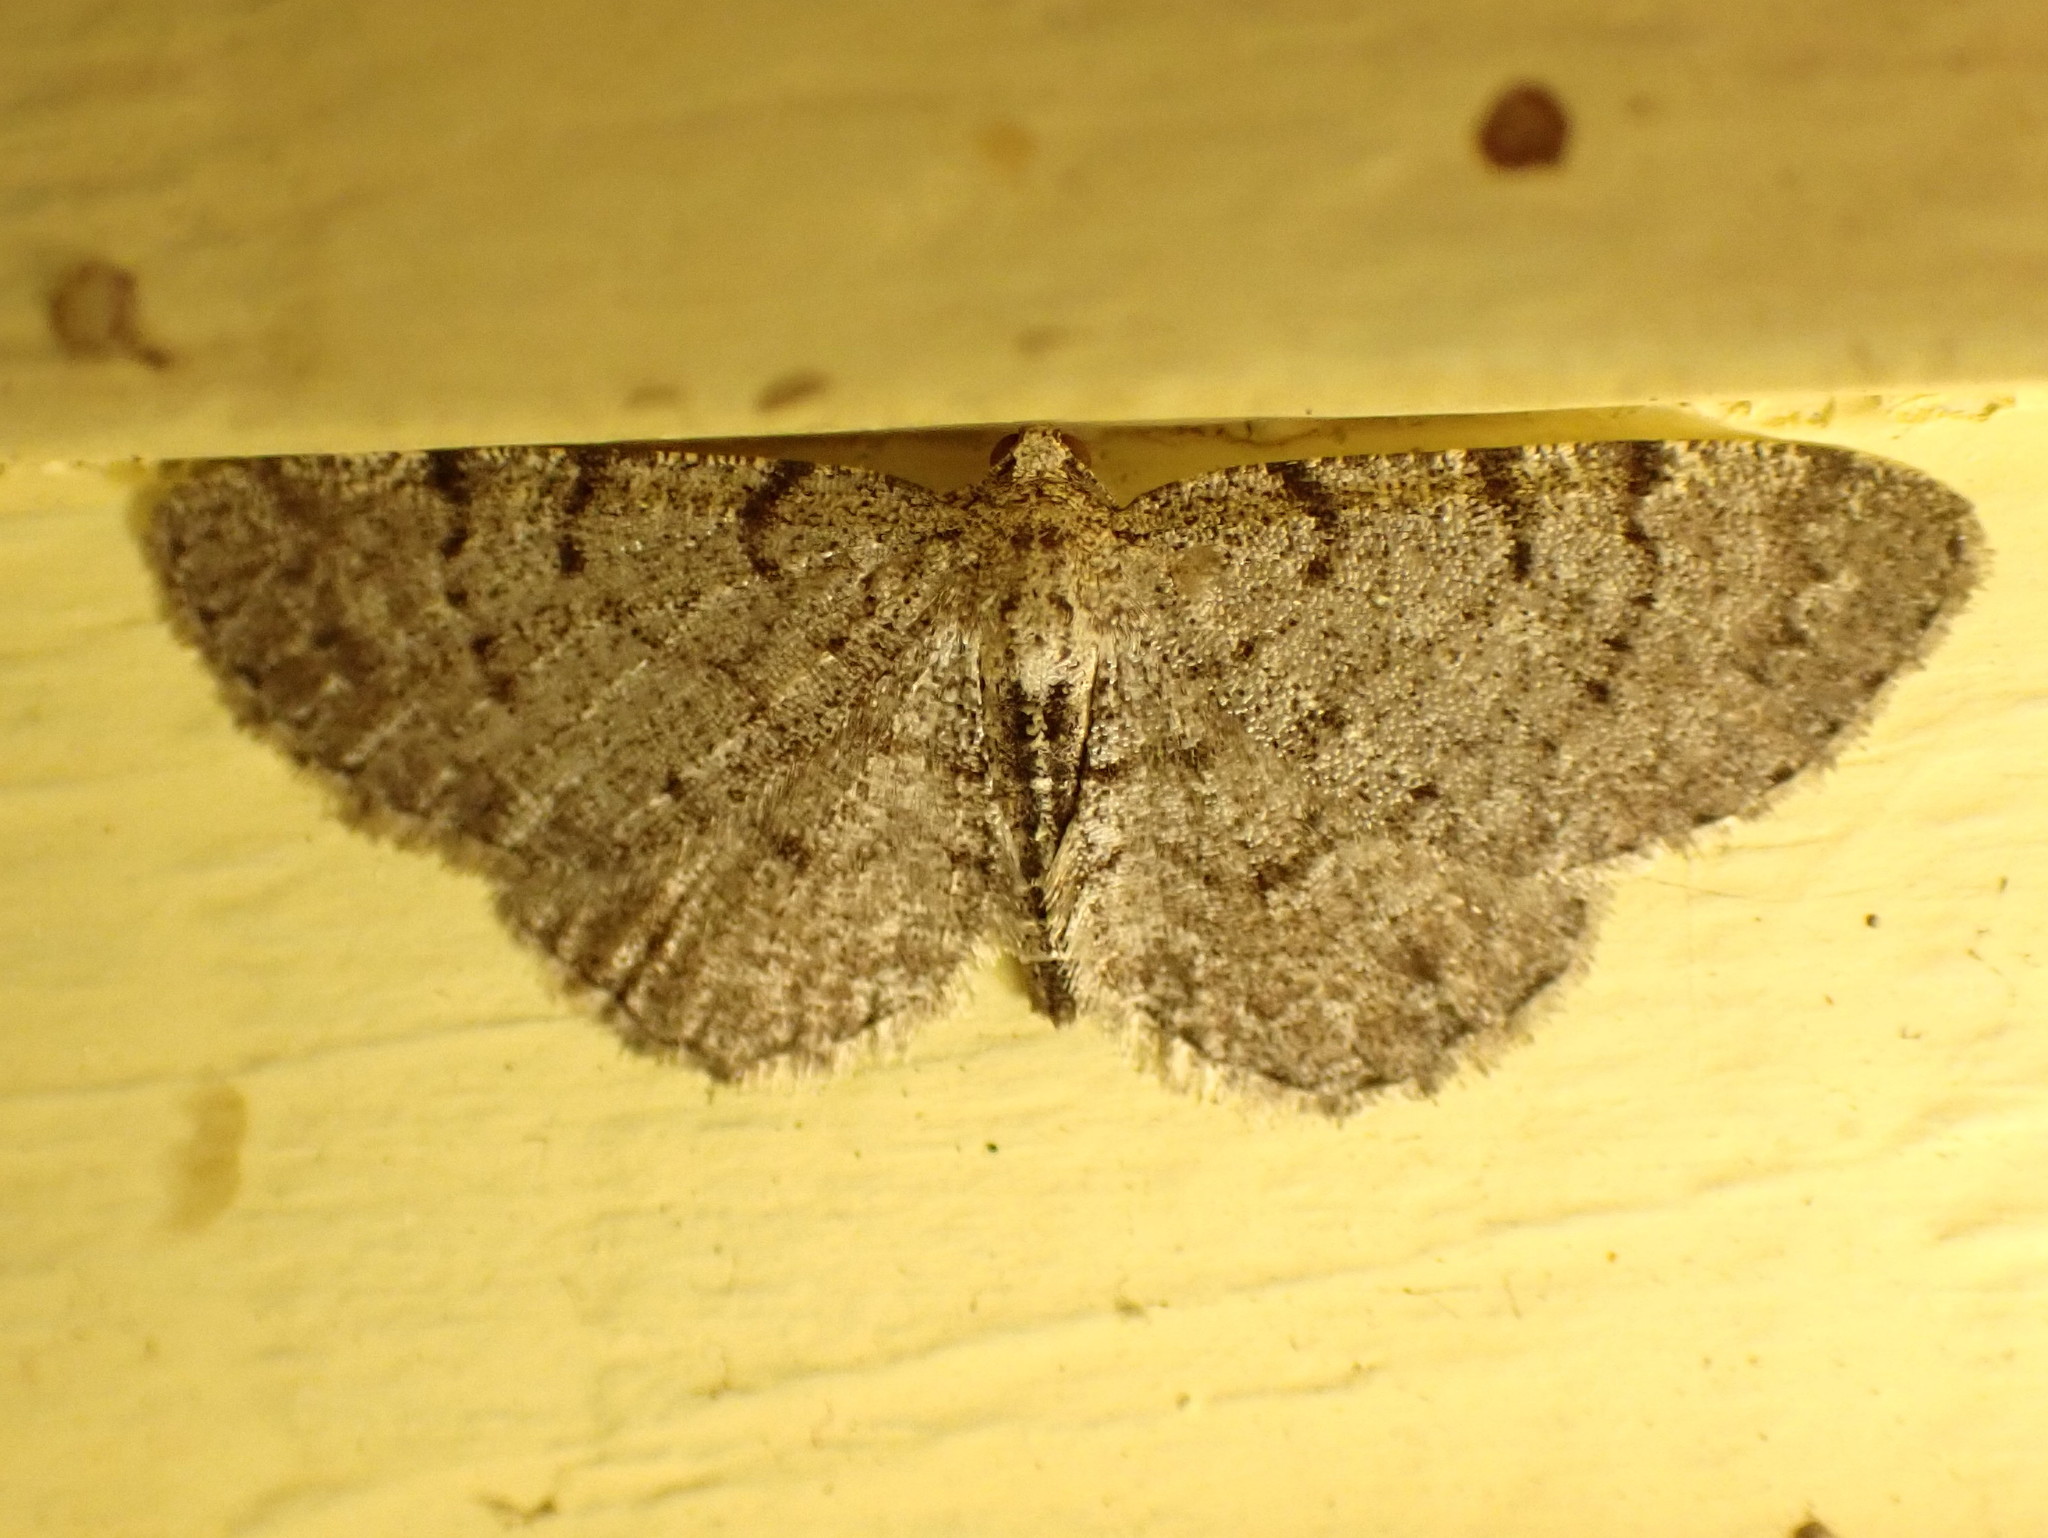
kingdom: Animalia
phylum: Arthropoda
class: Insecta
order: Lepidoptera
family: Geometridae
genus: Aethalura
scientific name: Aethalura intertexta
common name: Four-barred gray
